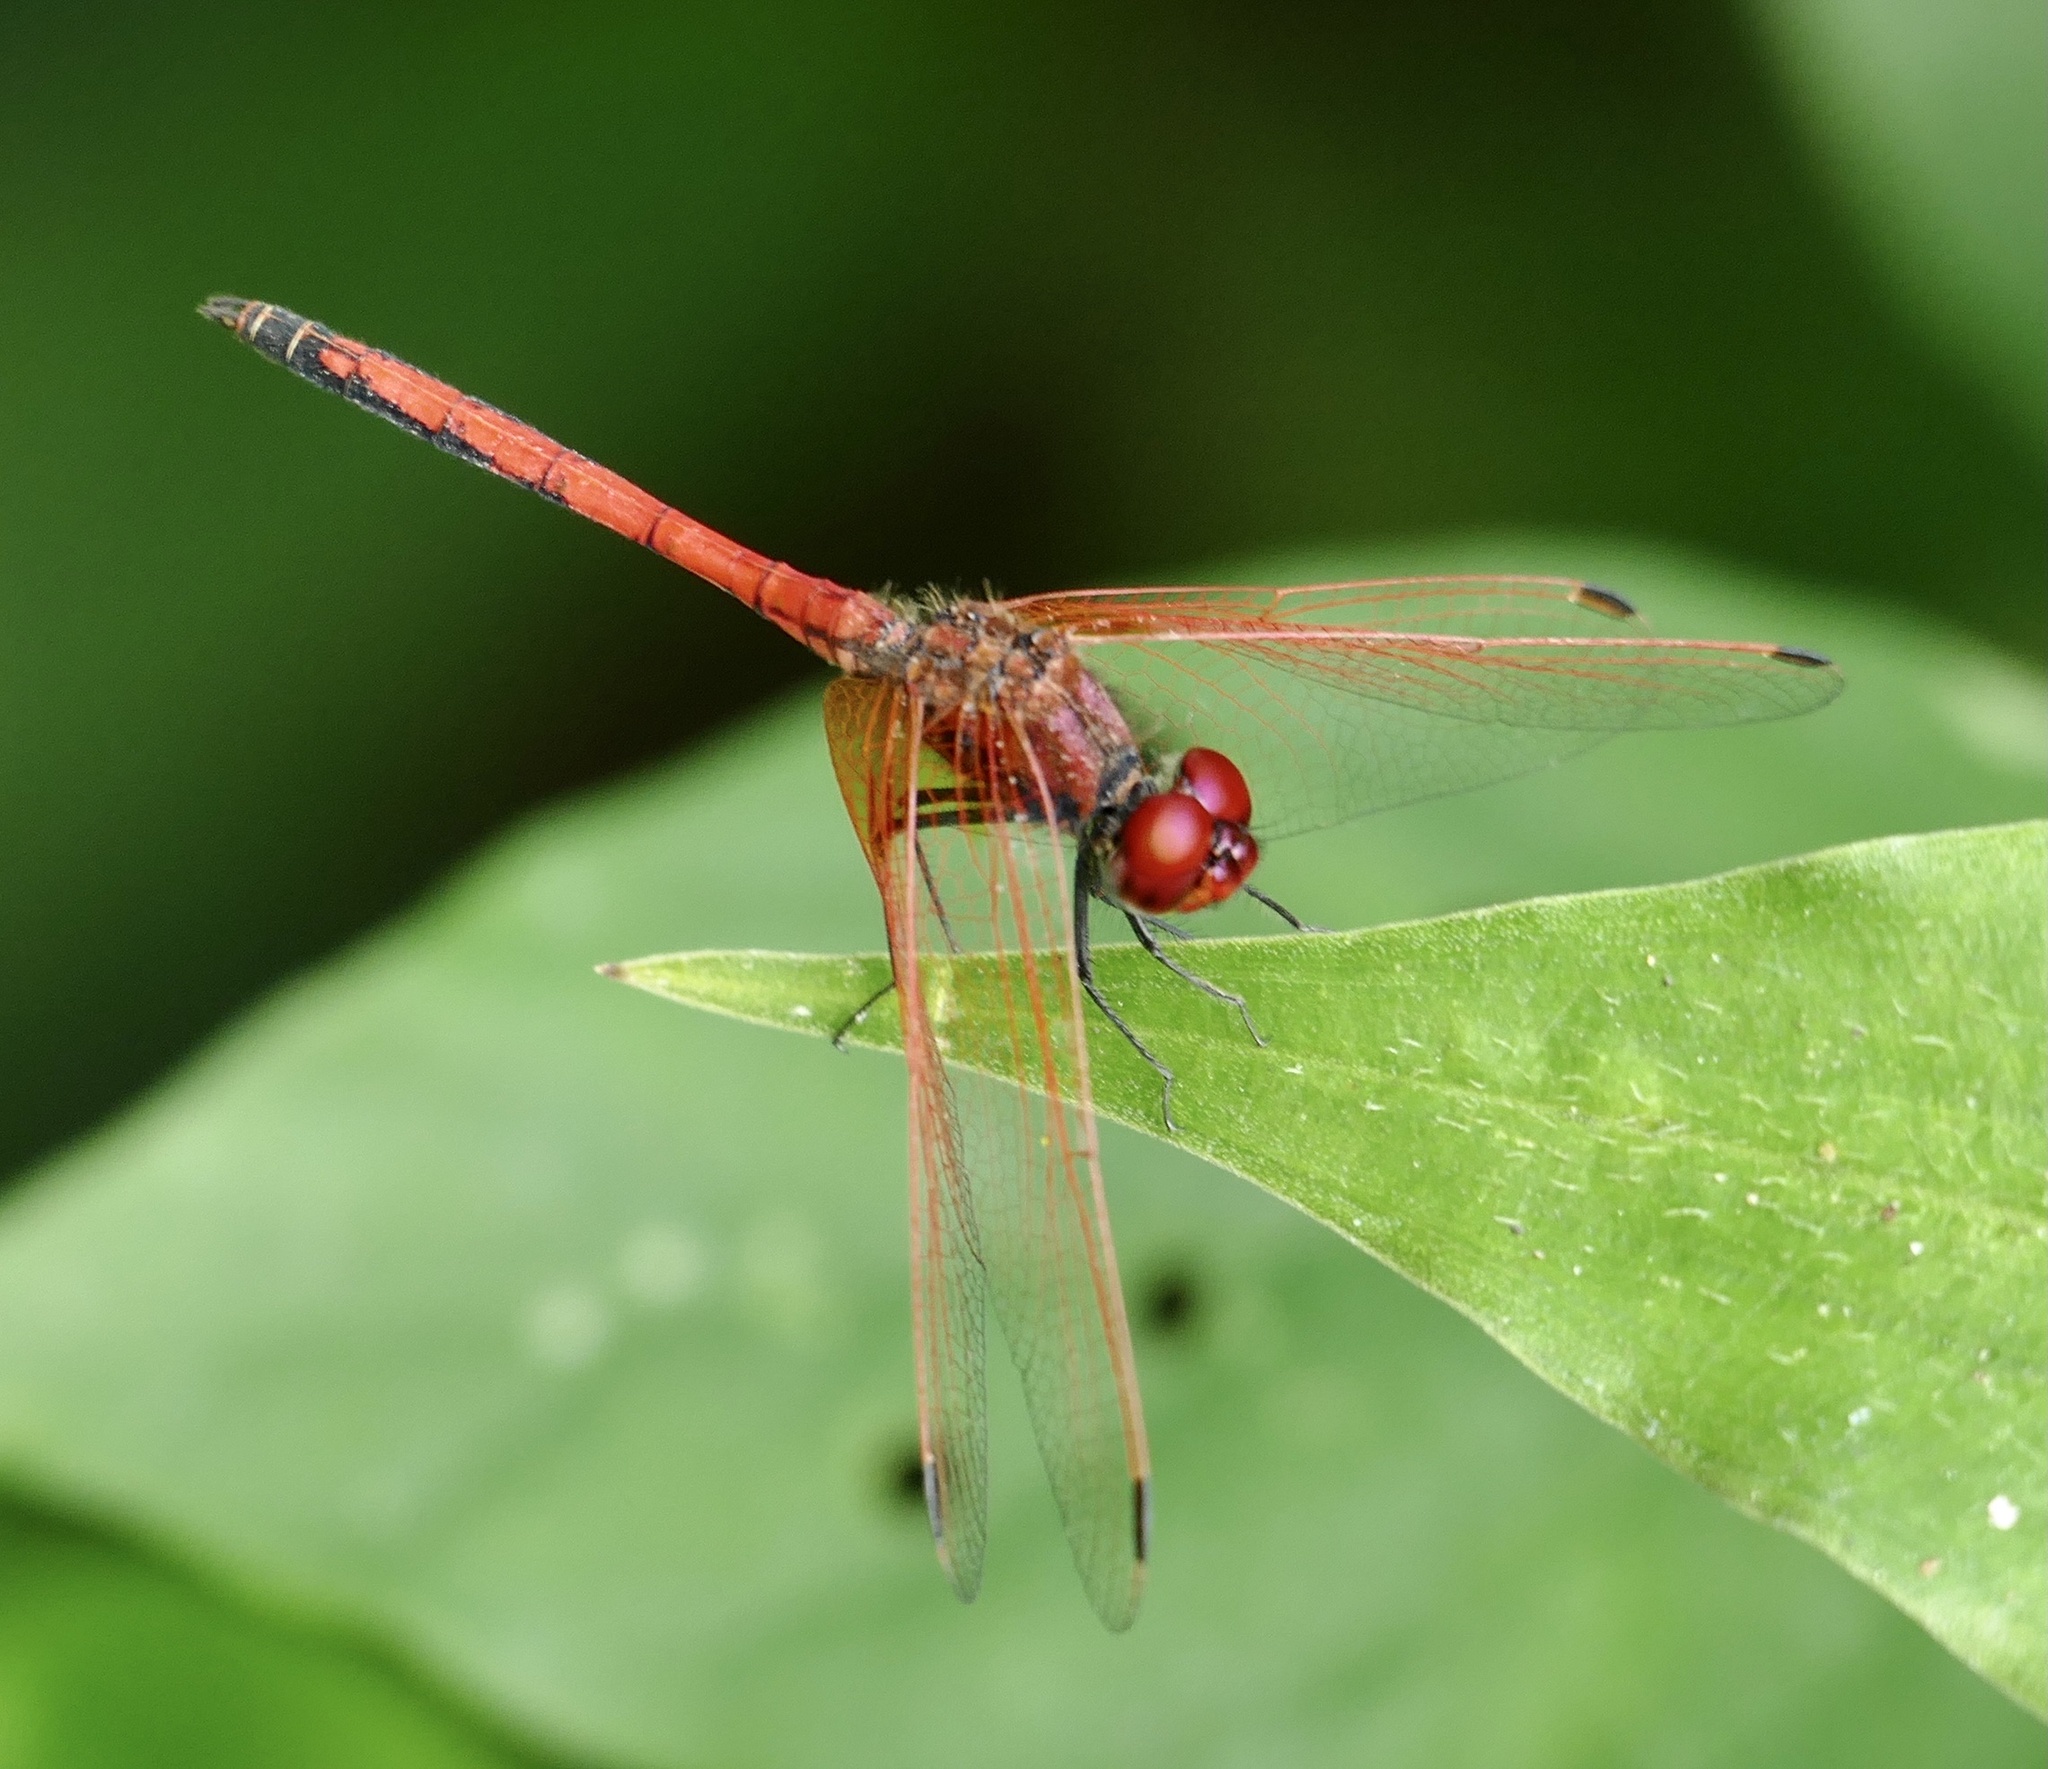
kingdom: Animalia
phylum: Arthropoda
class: Insecta
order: Odonata
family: Libellulidae
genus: Trithemis
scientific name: Trithemis arteriosa
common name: Red-veined dropwing
